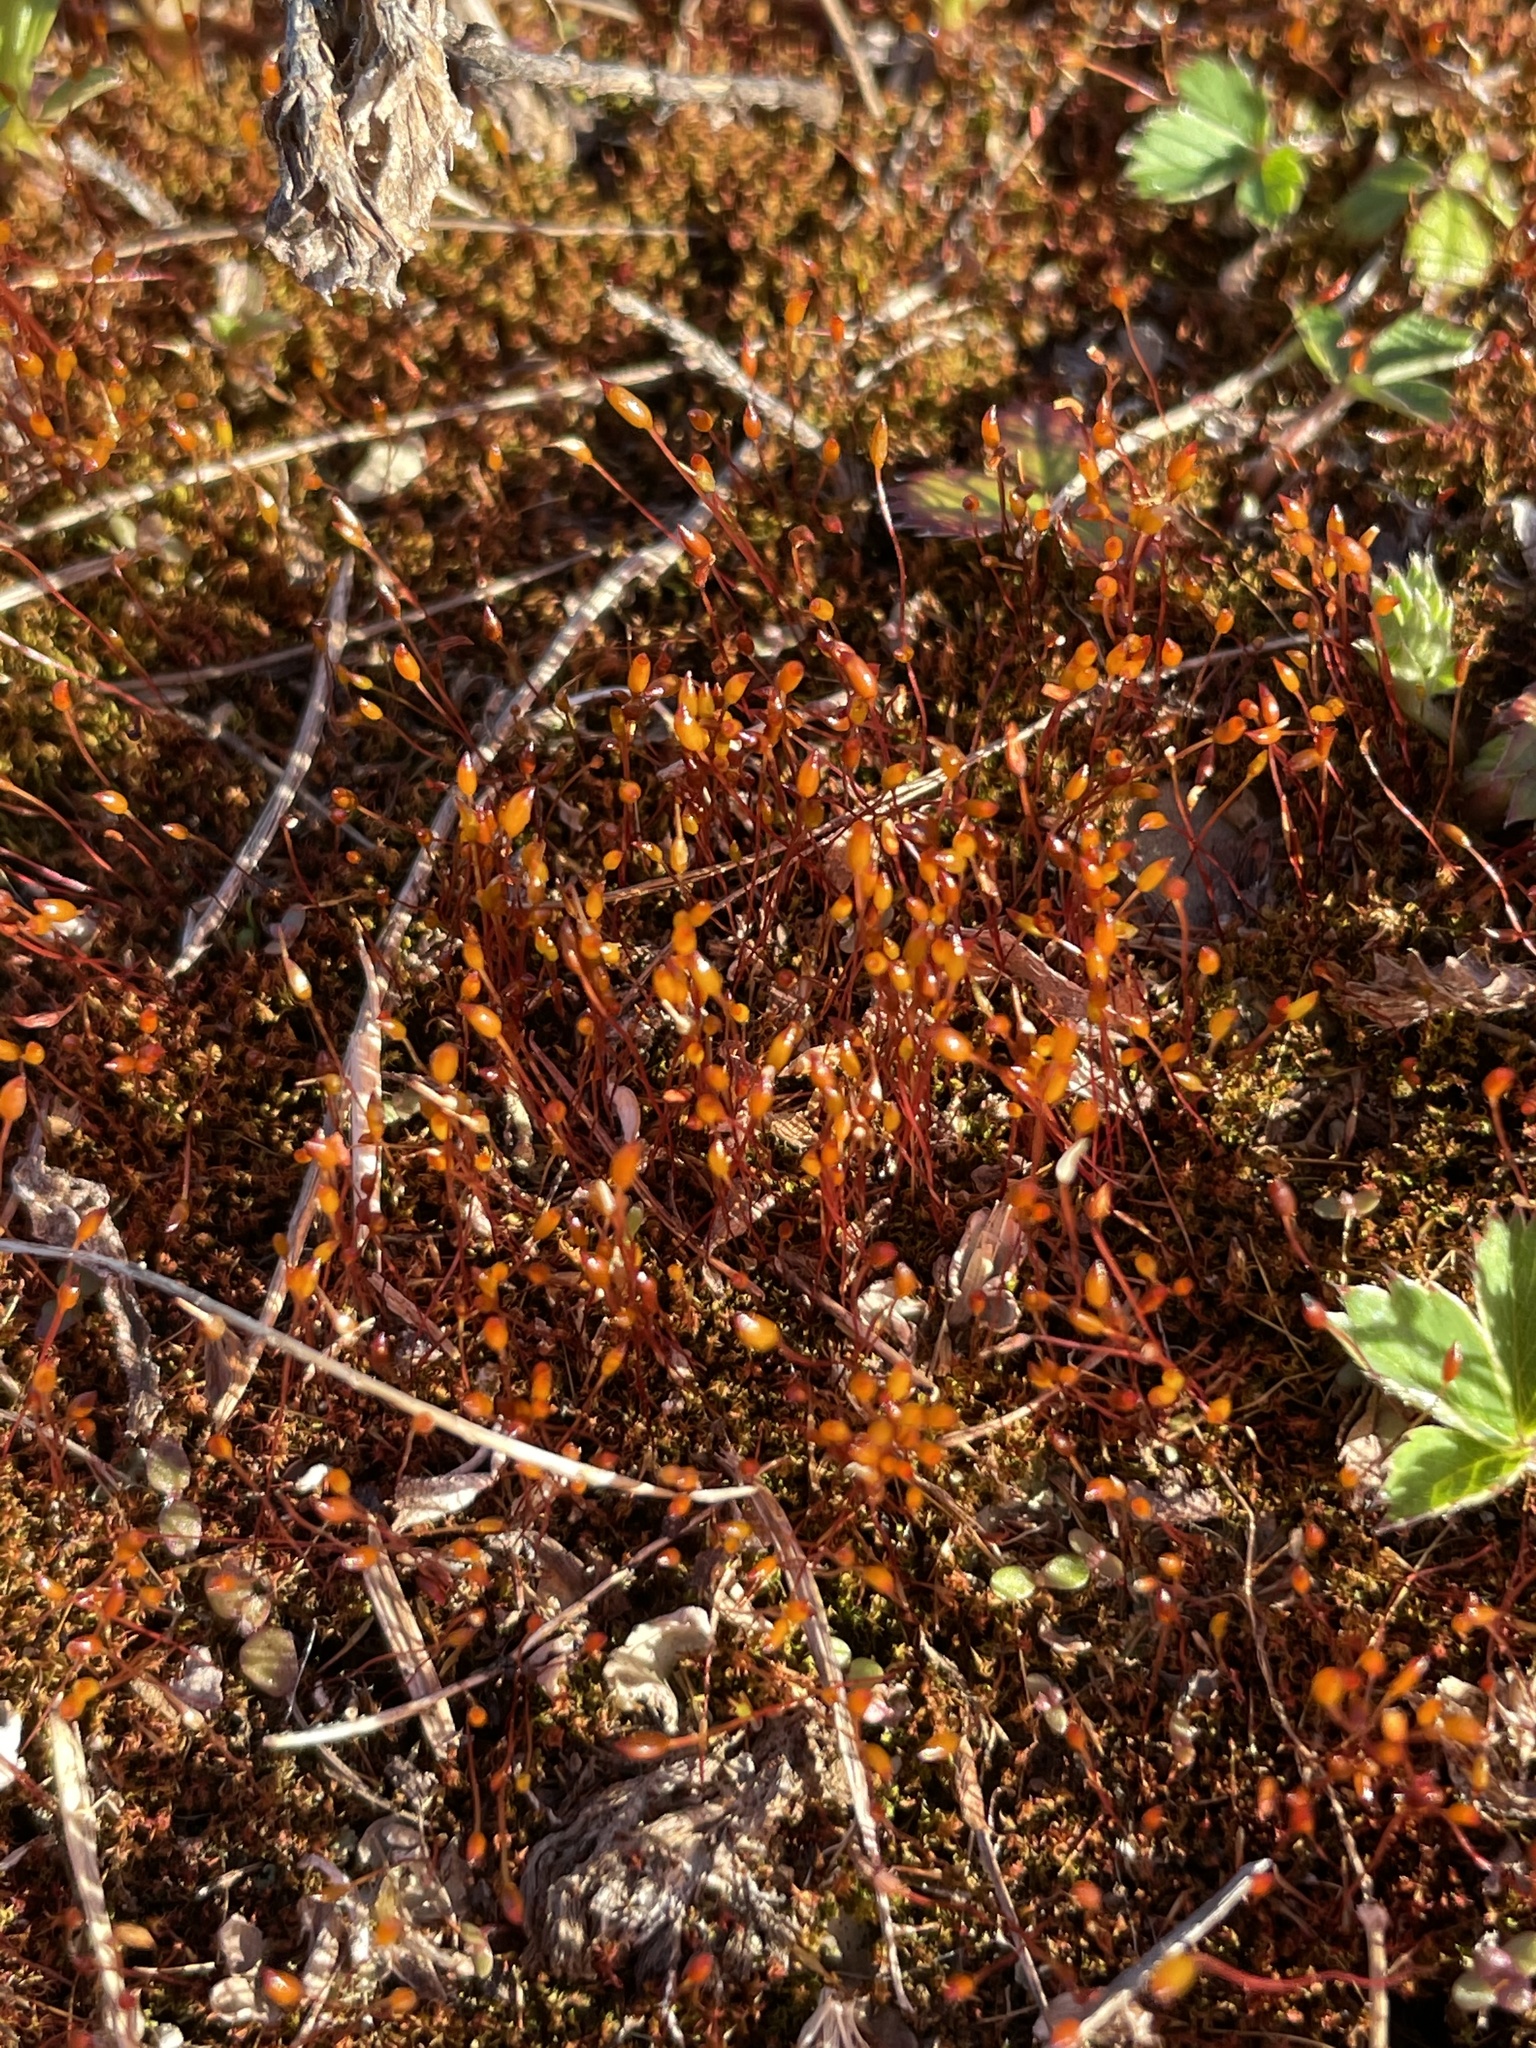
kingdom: Plantae
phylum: Bryophyta
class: Bryopsida
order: Dicranales
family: Ditrichaceae
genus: Ceratodon
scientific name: Ceratodon purpureus
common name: Redshank
